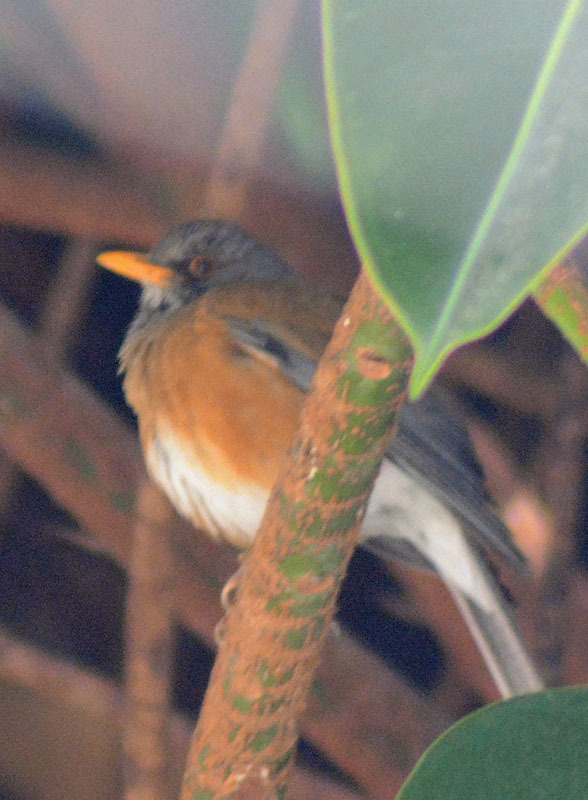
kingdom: Animalia
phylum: Chordata
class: Aves
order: Passeriformes
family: Turdidae
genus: Turdus
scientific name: Turdus rufopalliatus
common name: Rufous-backed robin
